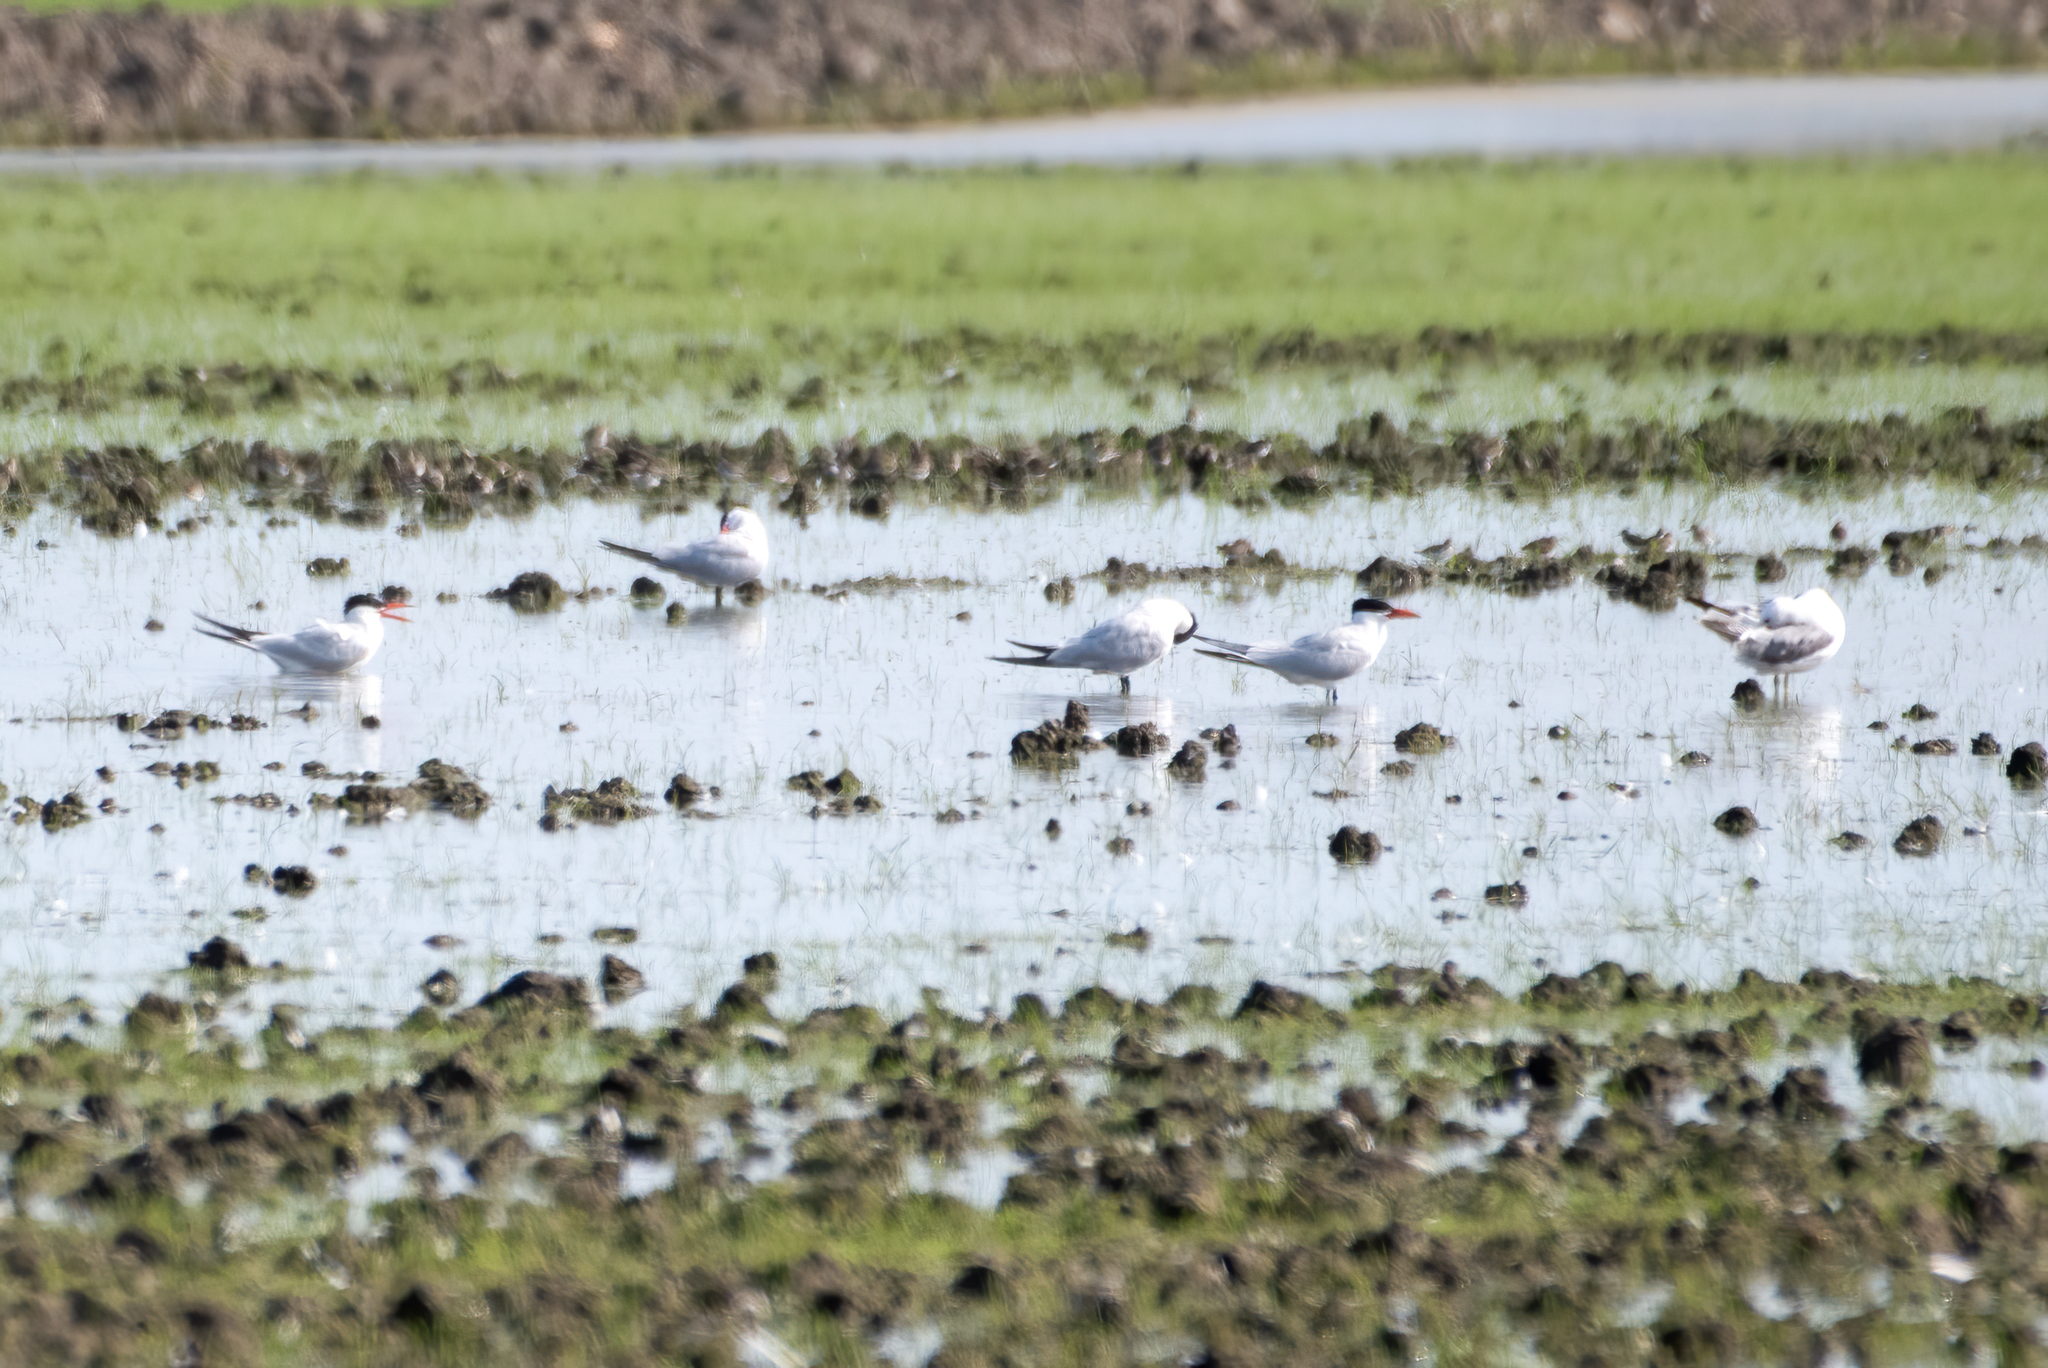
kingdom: Animalia
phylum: Chordata
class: Aves
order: Charadriiformes
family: Laridae
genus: Hydroprogne
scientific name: Hydroprogne caspia
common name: Caspian tern
